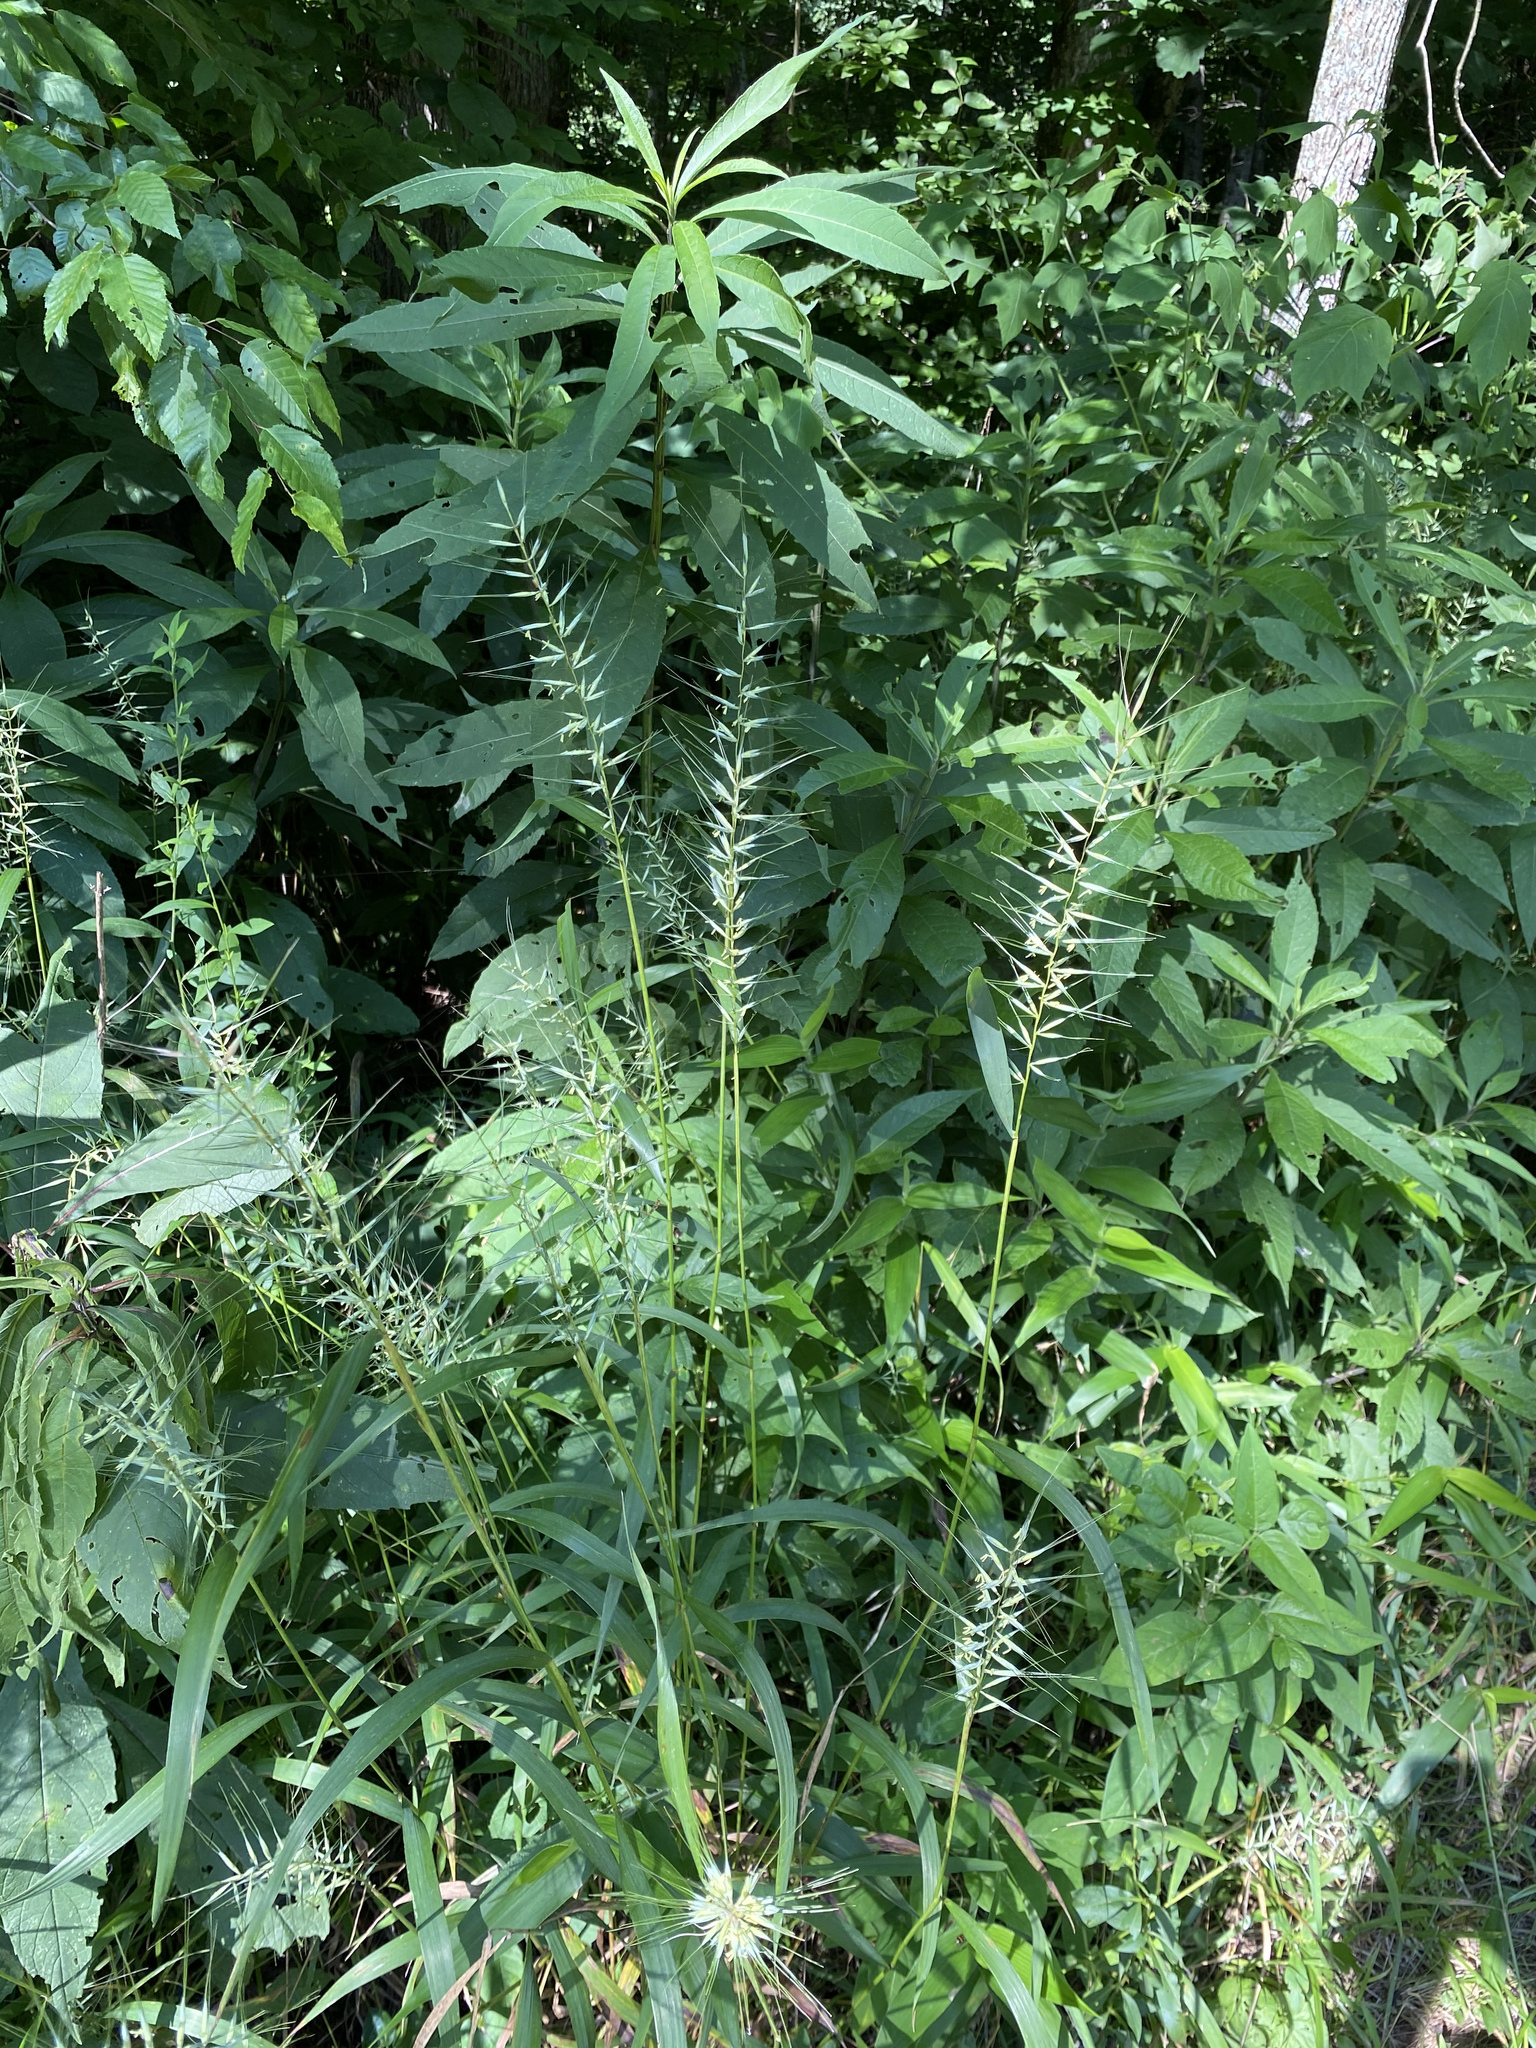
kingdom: Plantae
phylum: Tracheophyta
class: Liliopsida
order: Poales
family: Poaceae
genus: Elymus
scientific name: Elymus hystrix
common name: Bottlebrush grass
